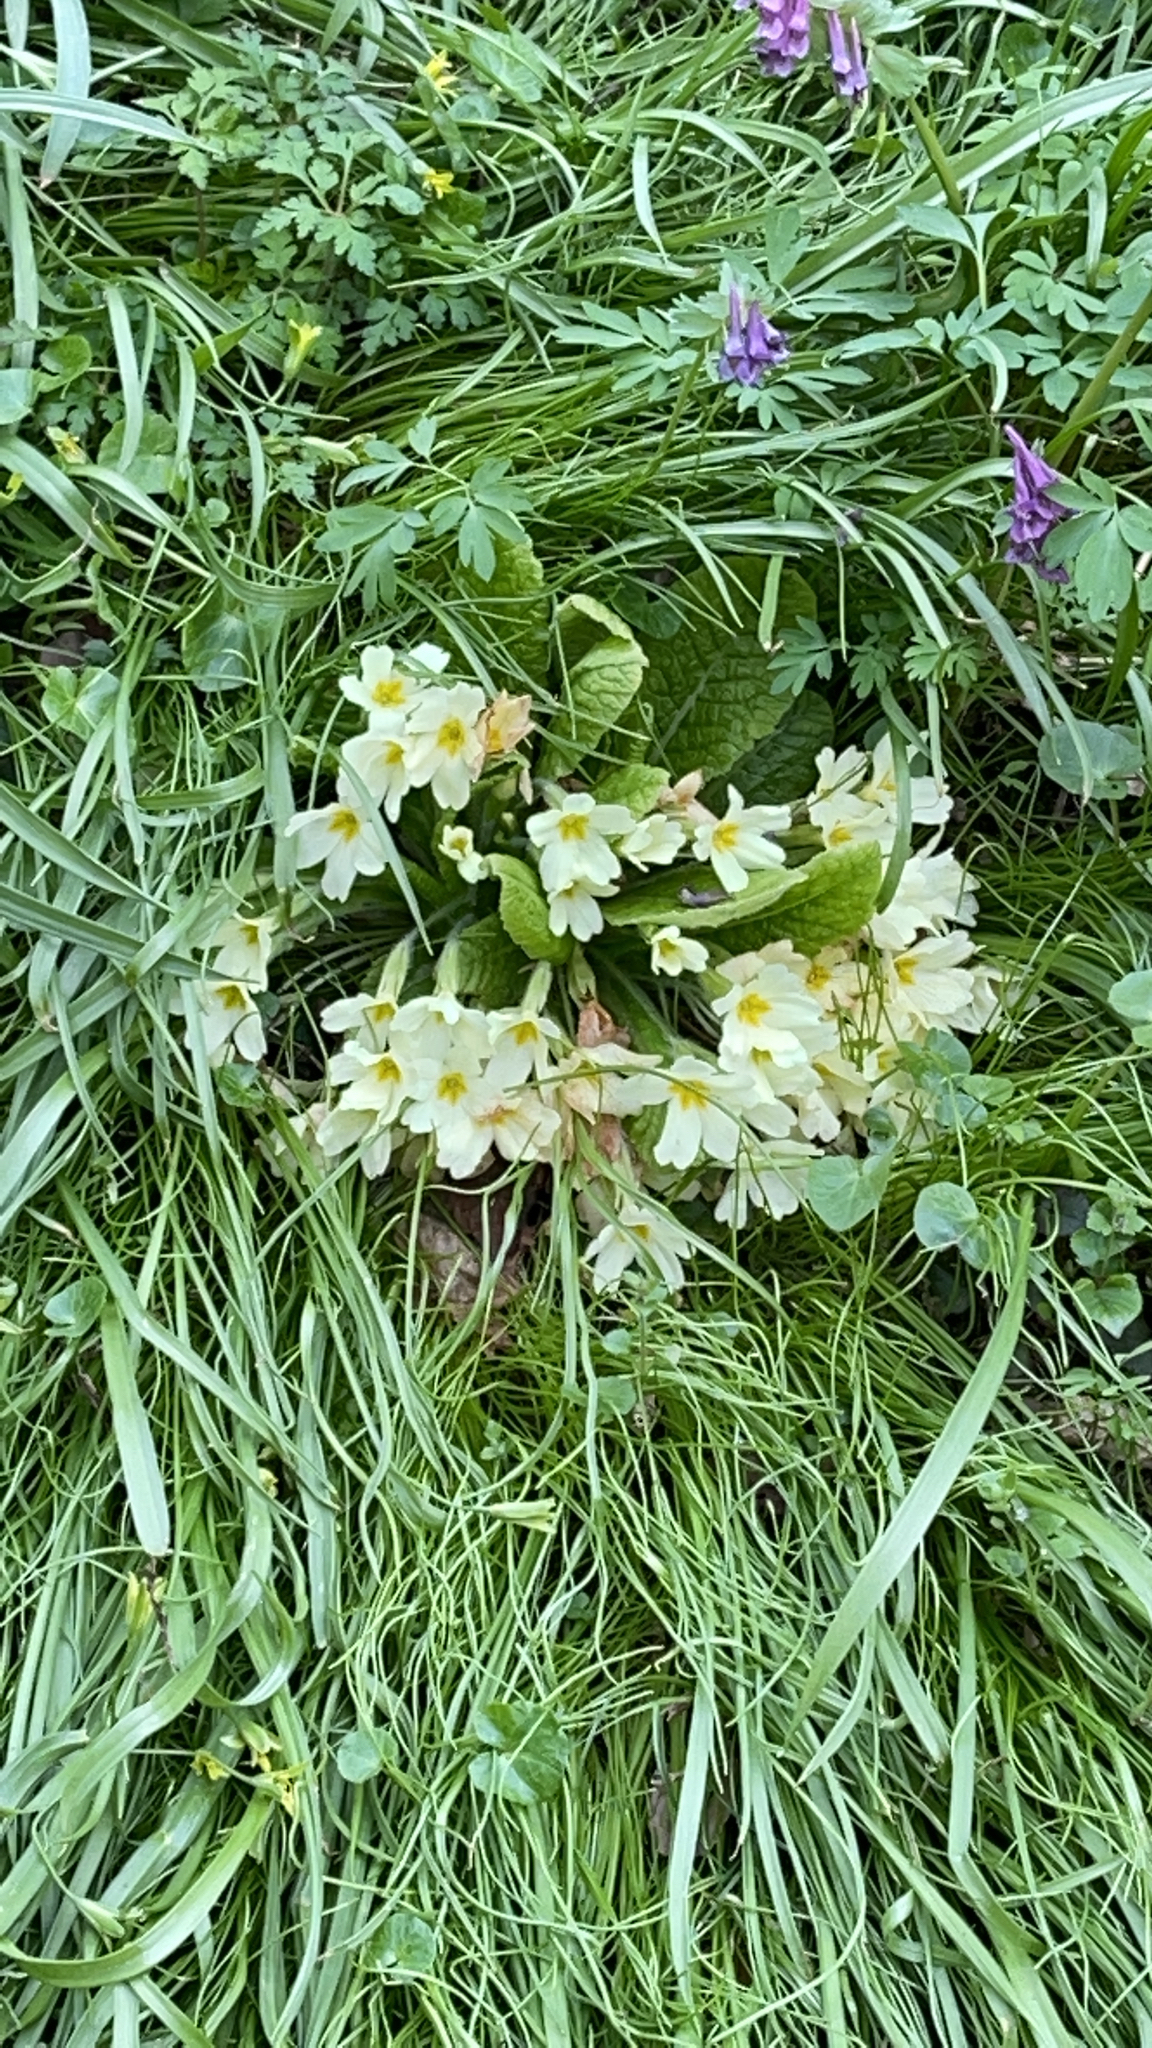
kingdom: Plantae
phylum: Tracheophyta
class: Magnoliopsida
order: Ericales
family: Primulaceae
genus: Primula
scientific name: Primula vulgaris
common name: Primrose
